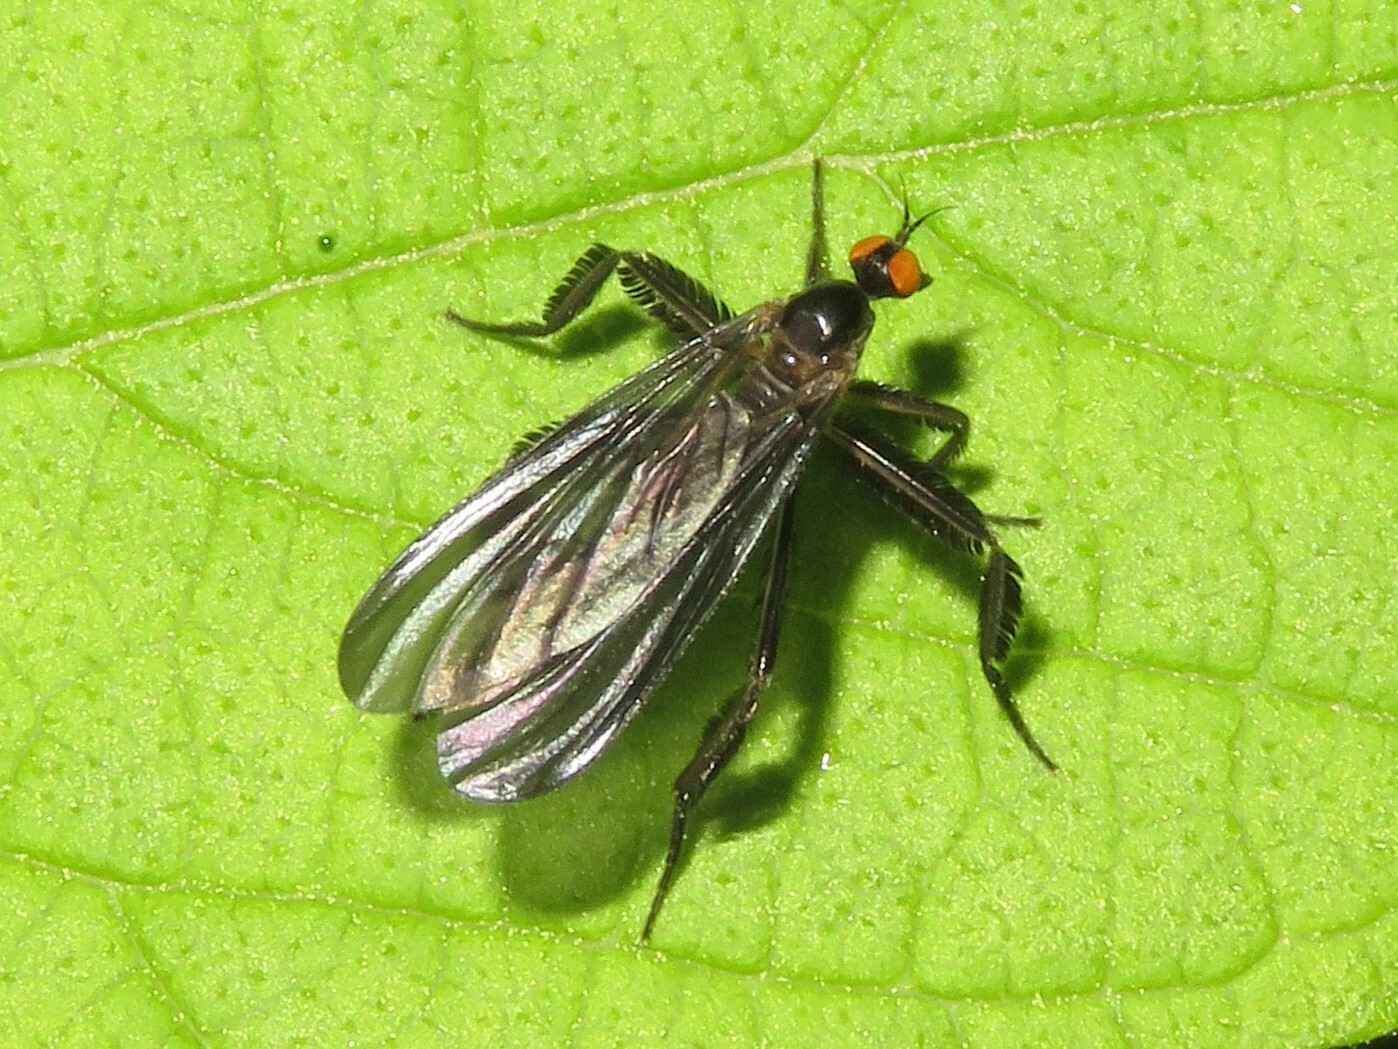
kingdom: Animalia
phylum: Arthropoda
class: Insecta
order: Diptera
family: Empididae
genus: Rhamphomyia
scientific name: Rhamphomyia longicauda
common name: Long-tailed dance fly
